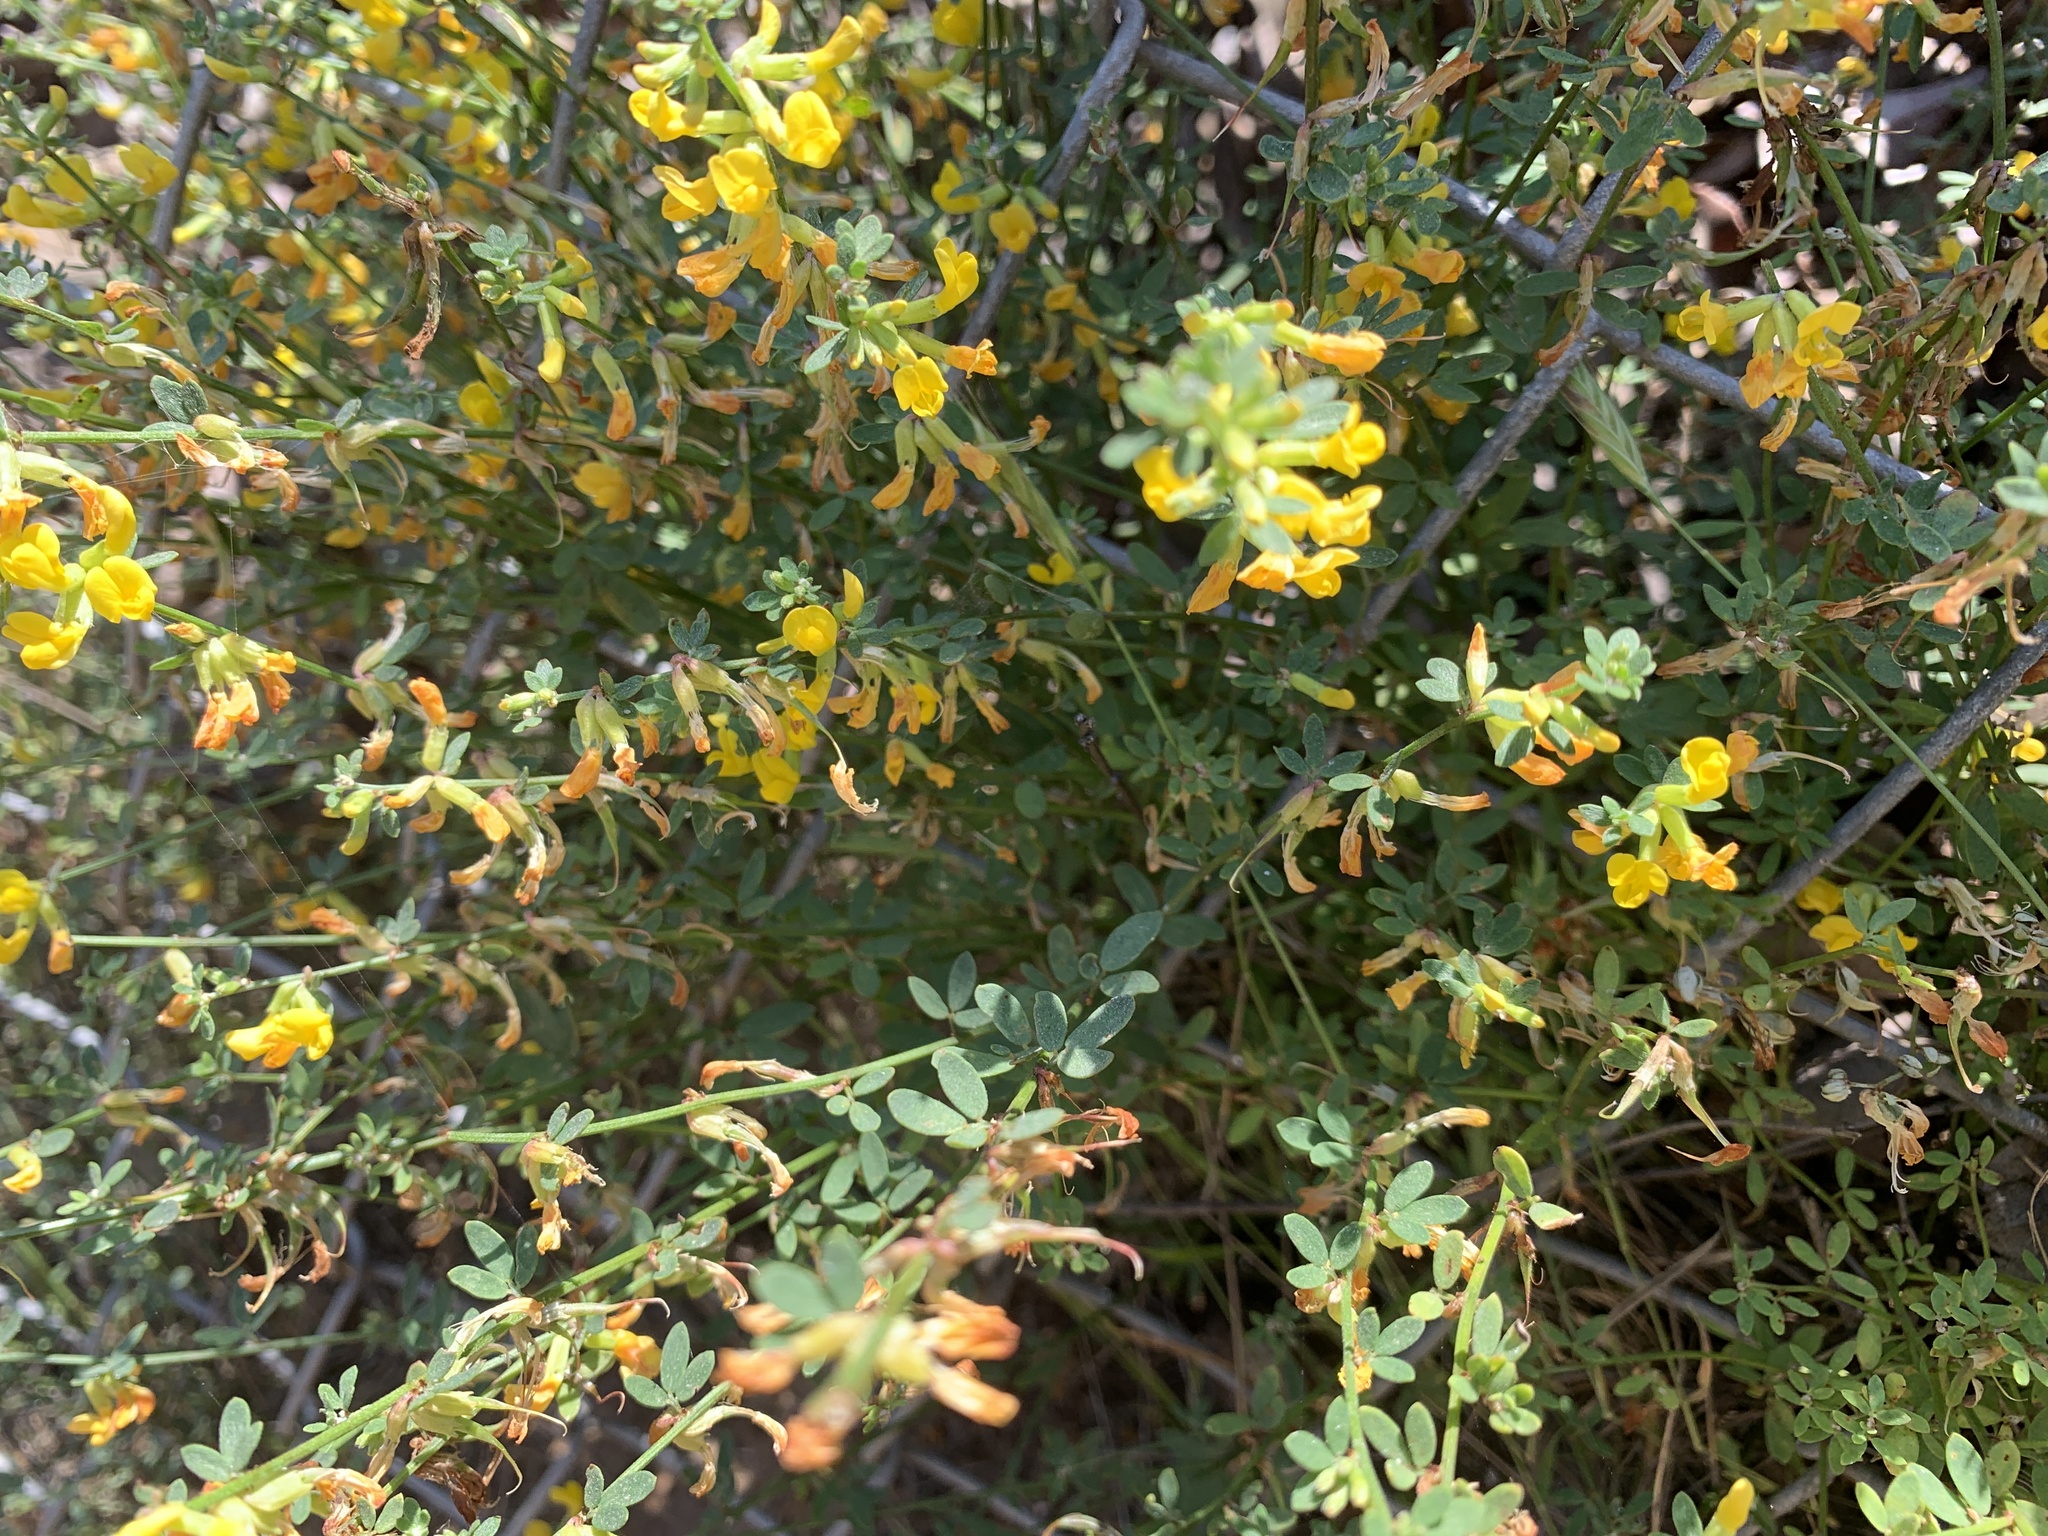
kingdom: Plantae
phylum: Tracheophyta
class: Magnoliopsida
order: Fabales
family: Fabaceae
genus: Acmispon
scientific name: Acmispon glaber
